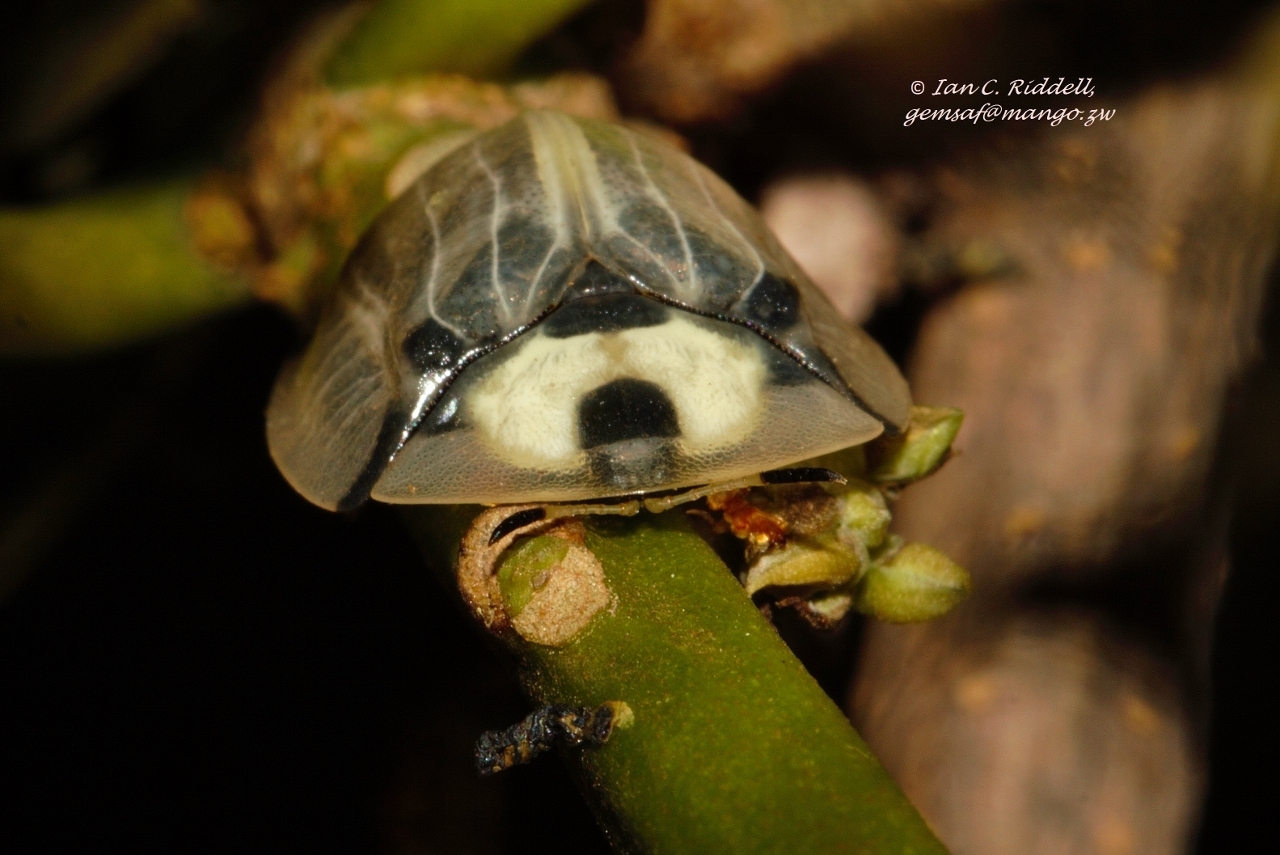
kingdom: Animalia
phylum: Arthropoda
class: Insecta
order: Coleoptera
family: Chrysomelidae
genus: Aspidimorpha
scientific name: Aspidimorpha angolensis
